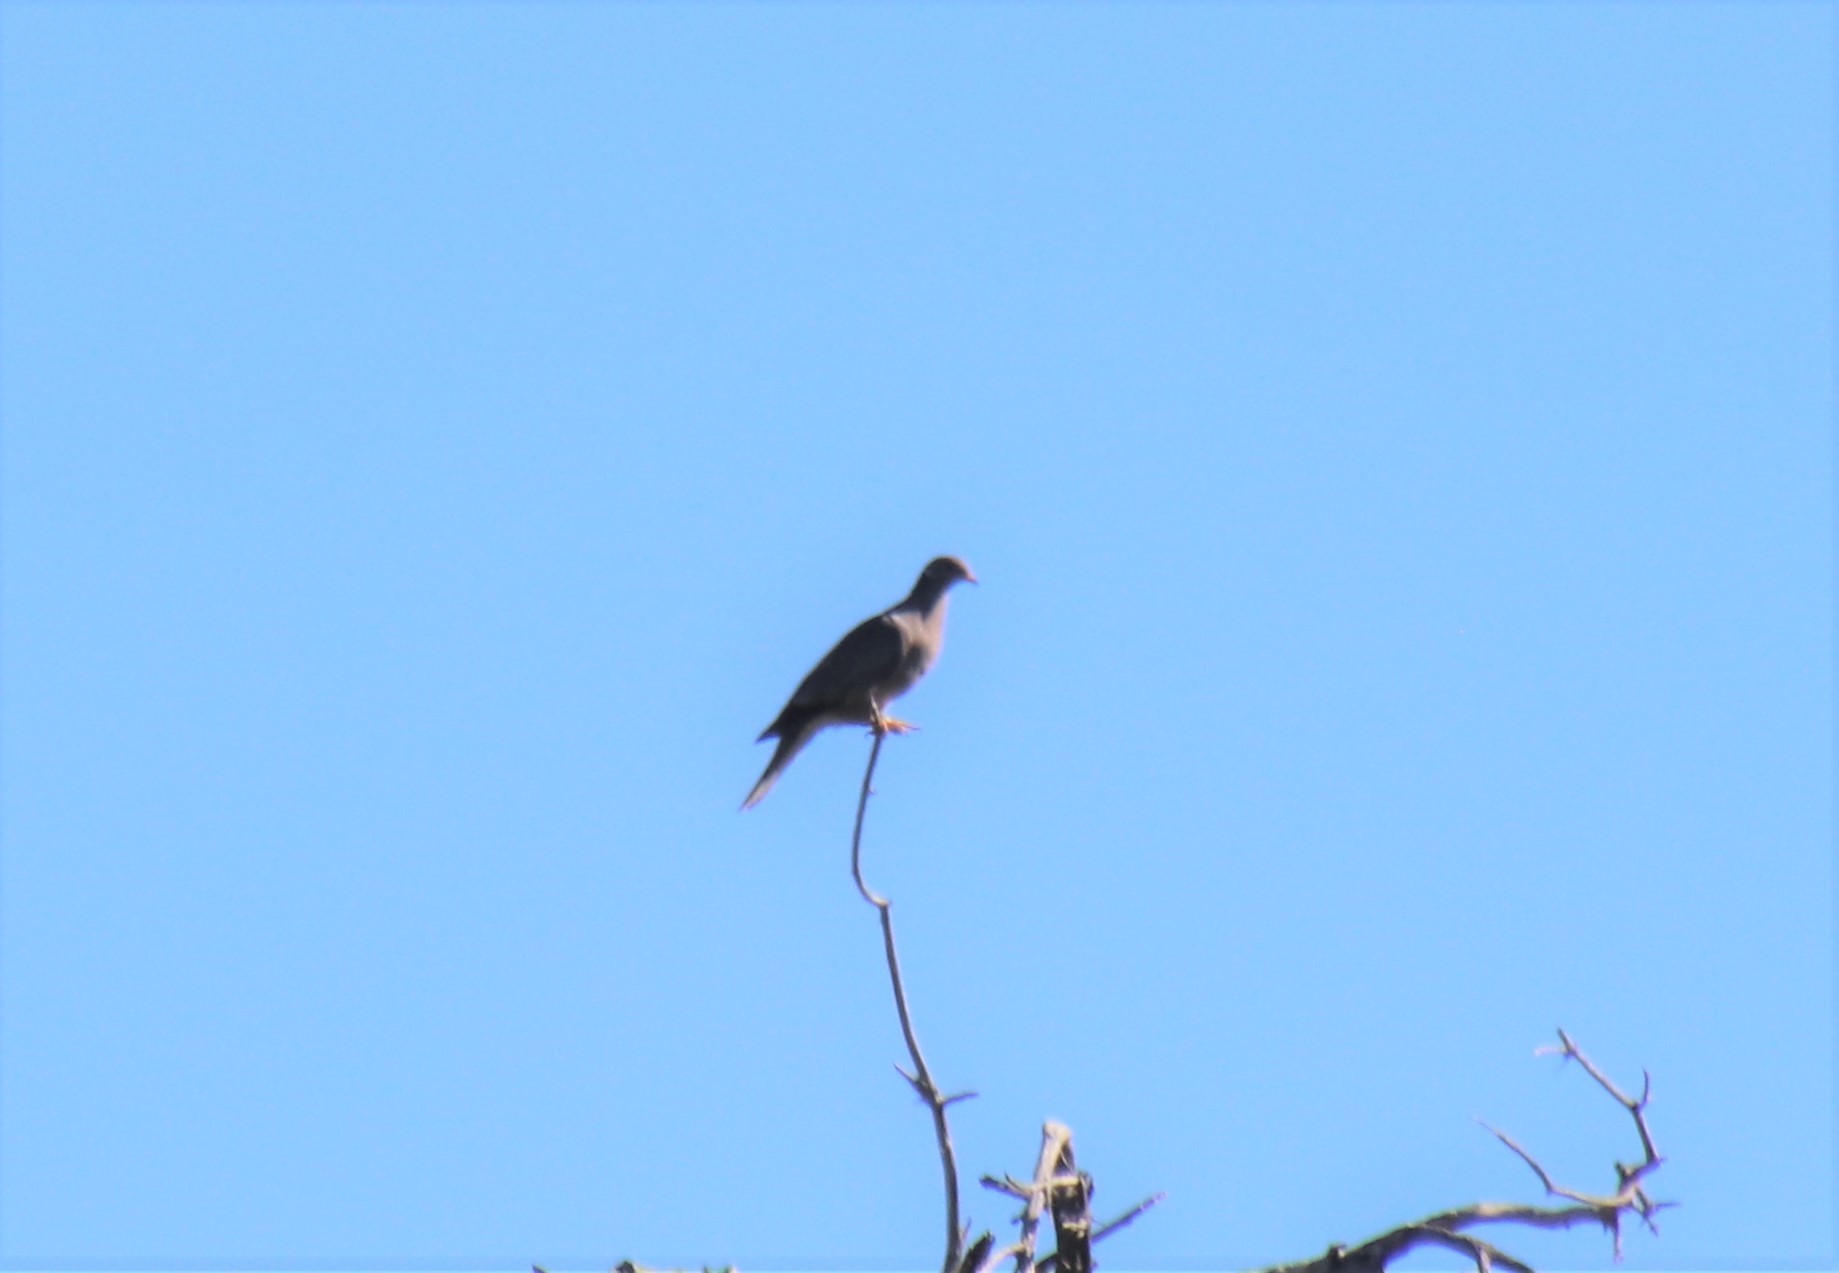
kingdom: Animalia
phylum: Chordata
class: Aves
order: Columbiformes
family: Columbidae
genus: Patagioenas
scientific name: Patagioenas fasciata
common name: Band-tailed pigeon
